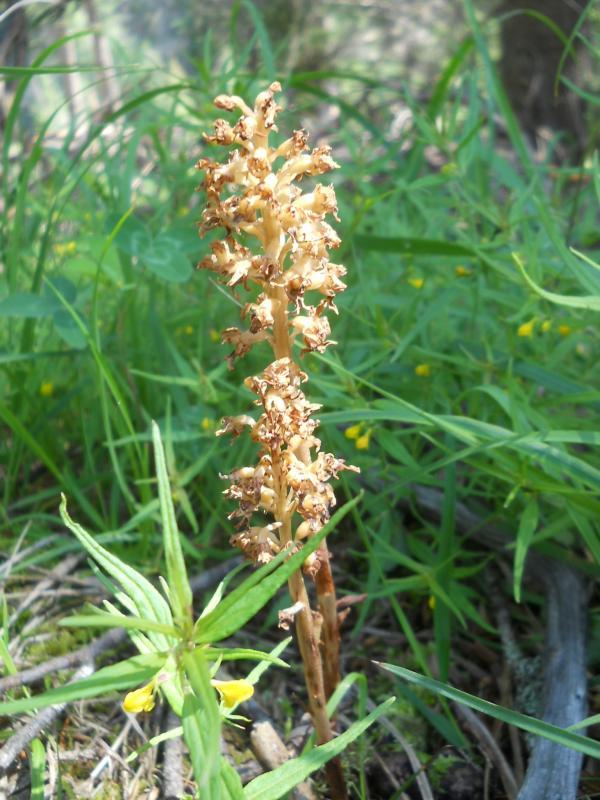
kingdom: Plantae
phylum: Tracheophyta
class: Liliopsida
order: Asparagales
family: Orchidaceae
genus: Neottia
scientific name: Neottia nidus-avis
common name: Bird's-nest orchid
